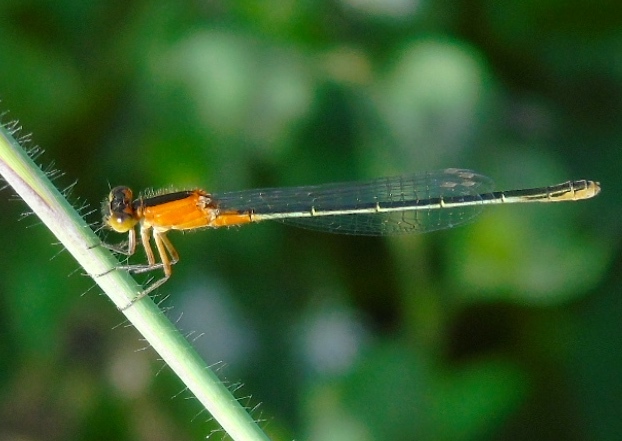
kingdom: Animalia
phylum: Arthropoda
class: Insecta
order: Odonata
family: Coenagrionidae
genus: Ischnura
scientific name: Ischnura ramburii
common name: Rambur's forktail
